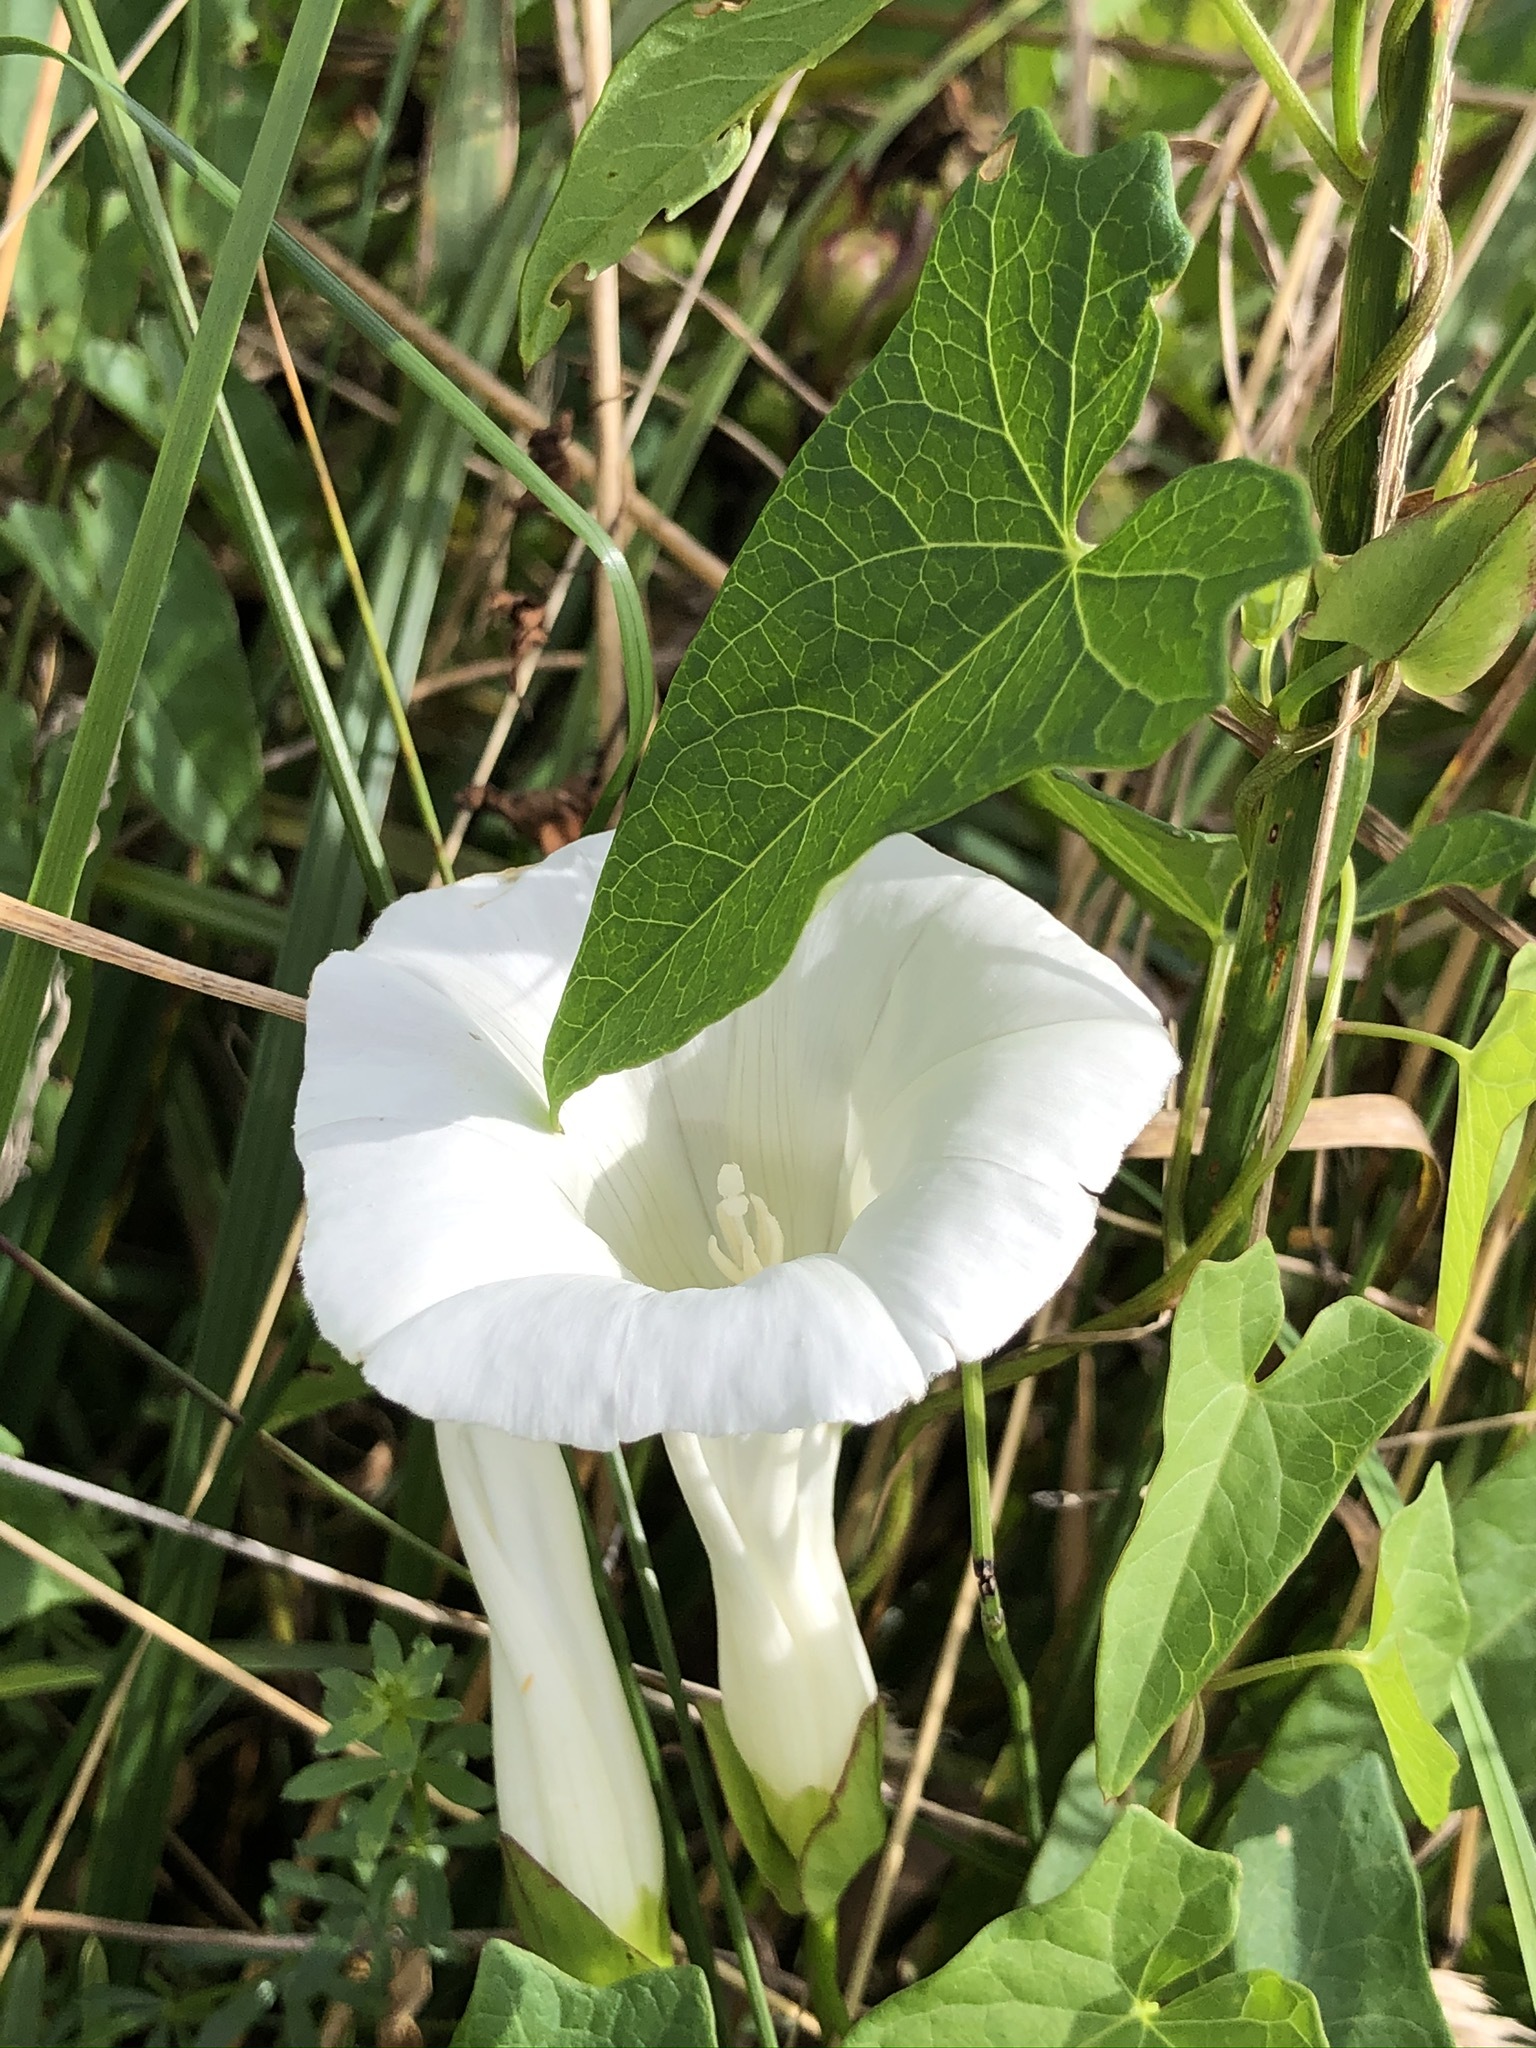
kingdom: Plantae
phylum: Tracheophyta
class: Magnoliopsida
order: Solanales
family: Convolvulaceae
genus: Calystegia
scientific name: Calystegia sepium
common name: Hedge bindweed
